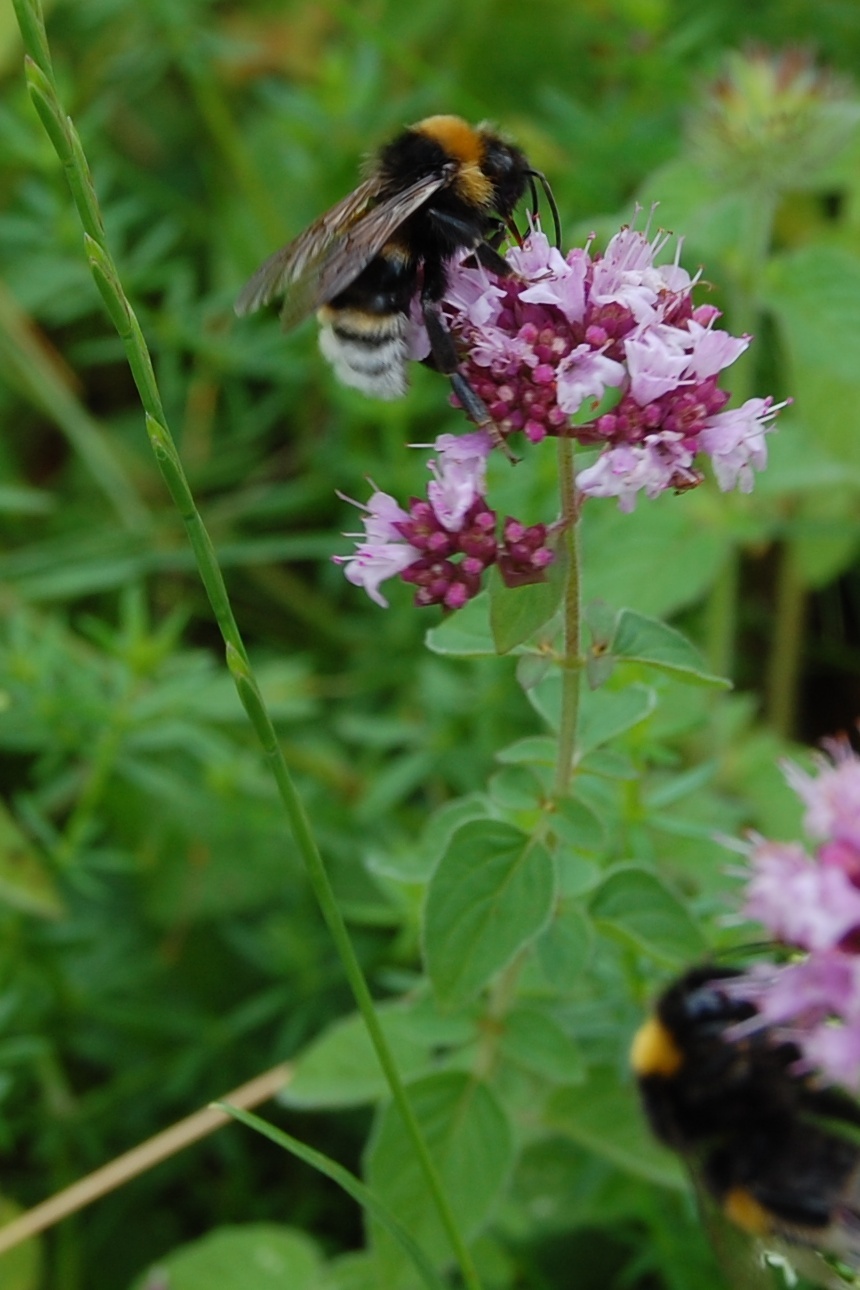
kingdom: Plantae
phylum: Tracheophyta
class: Magnoliopsida
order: Lamiales
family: Lamiaceae
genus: Origanum
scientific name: Origanum vulgare
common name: Wild marjoram
